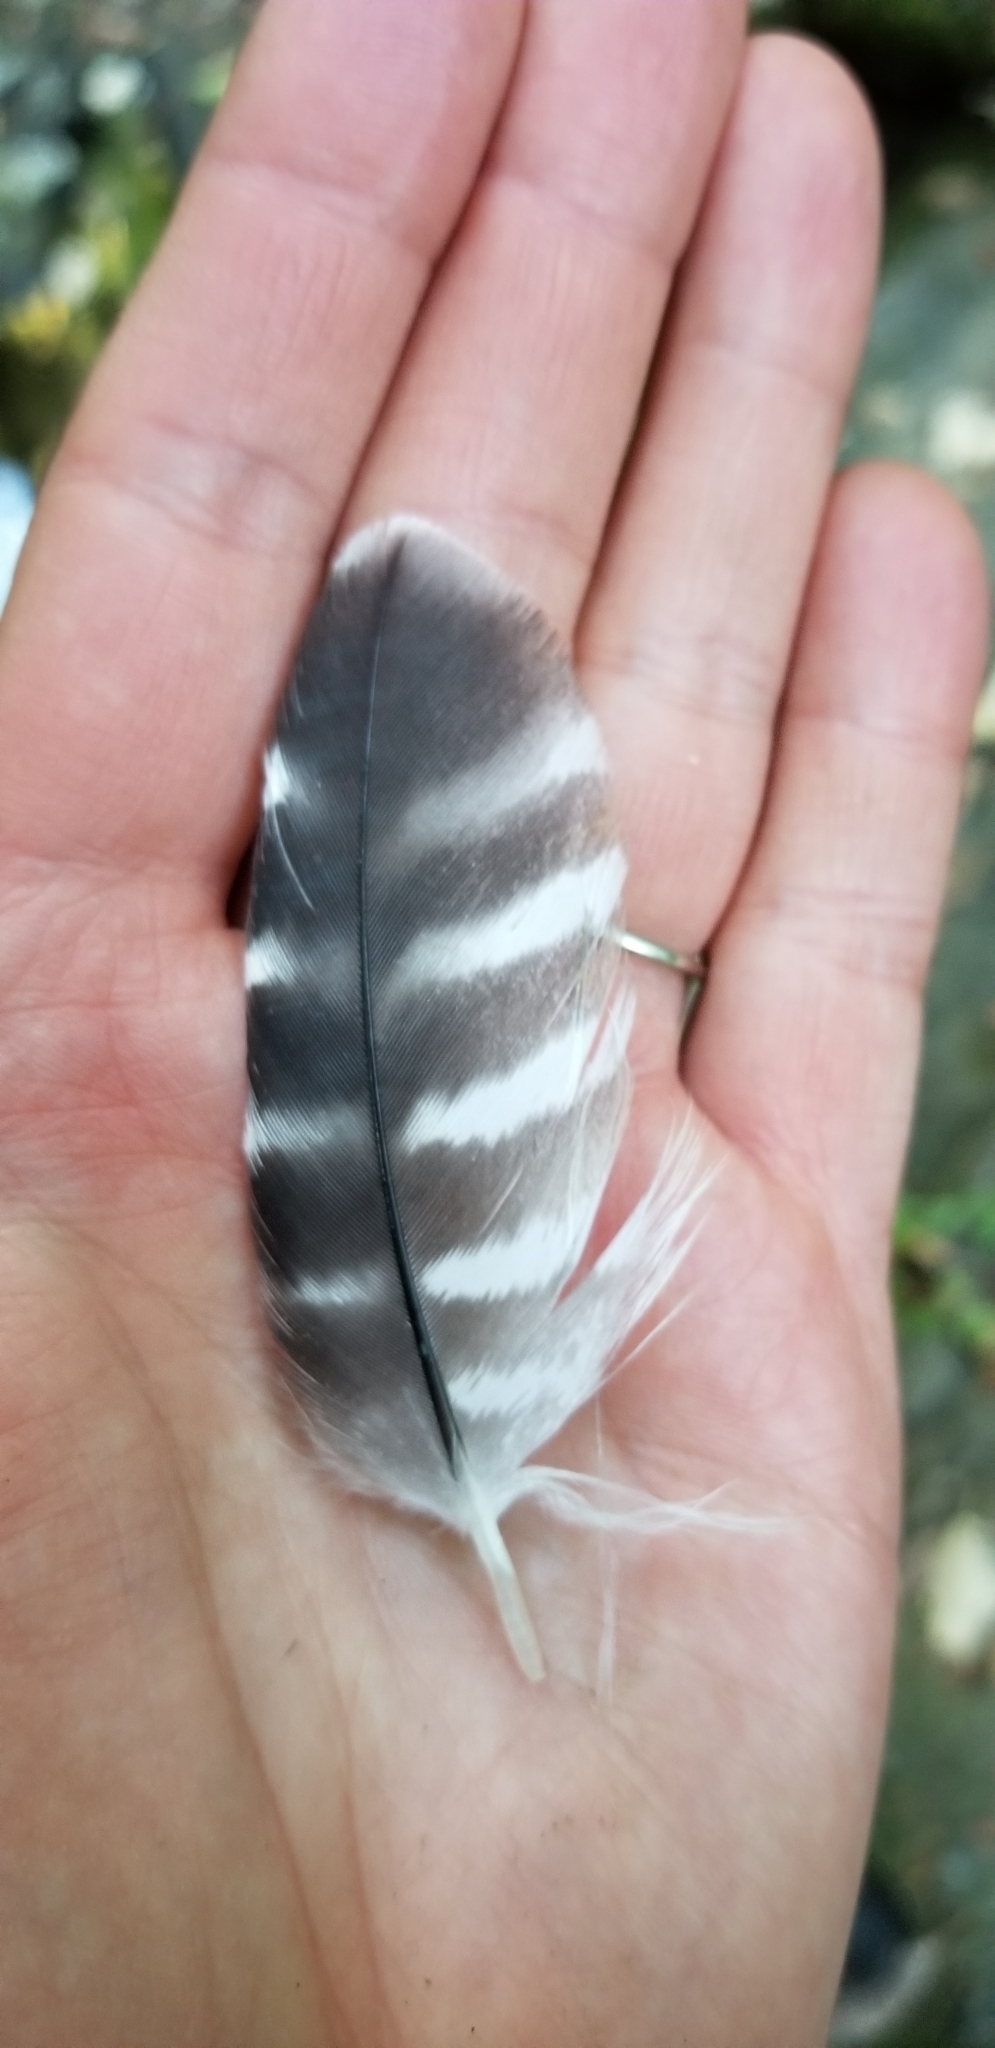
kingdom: Animalia
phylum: Chordata
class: Aves
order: Accipitriformes
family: Accipitridae
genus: Buteo
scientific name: Buteo lineatus
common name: Red-shouldered hawk
